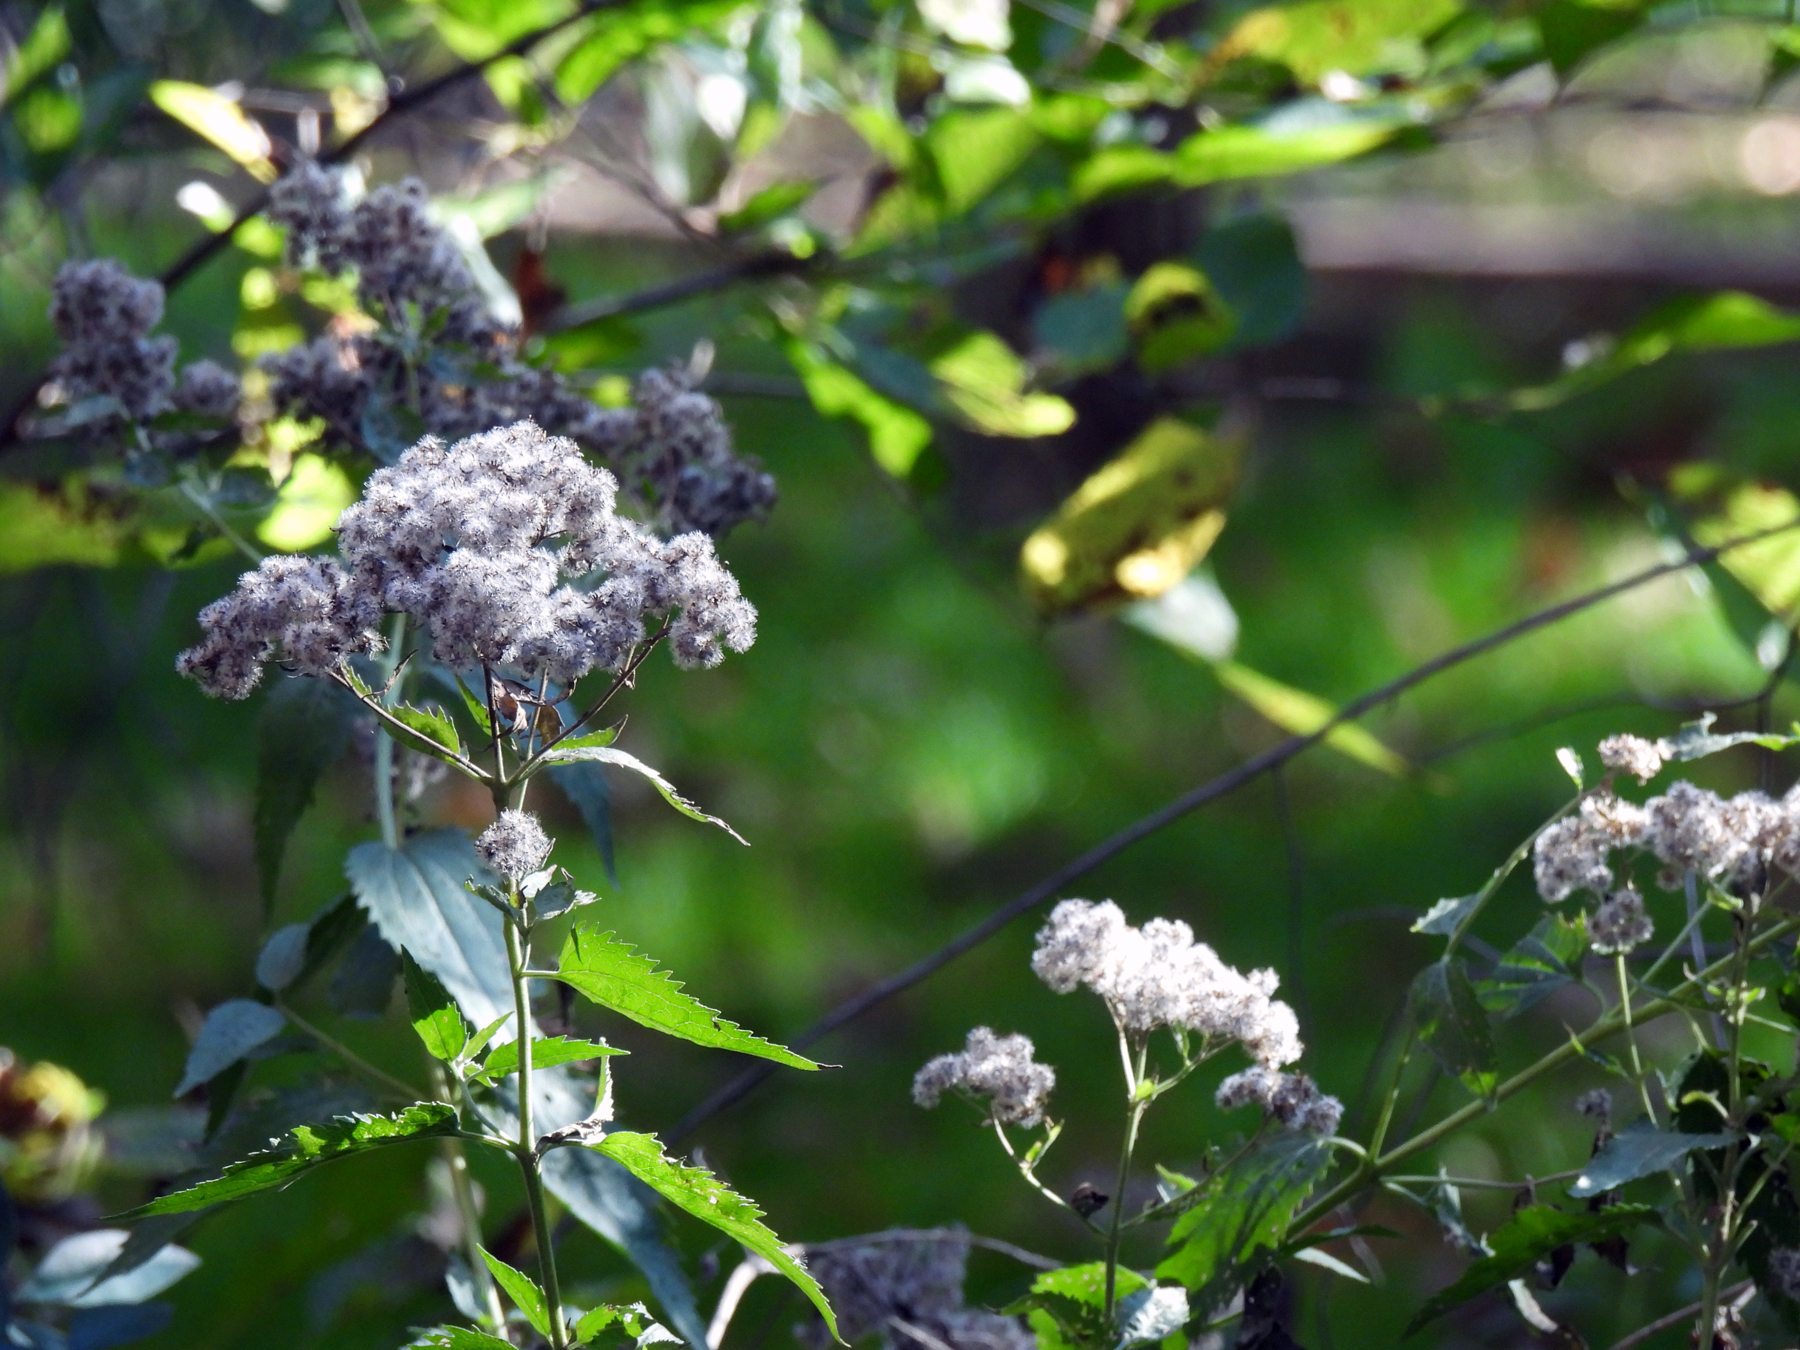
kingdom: Plantae
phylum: Tracheophyta
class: Magnoliopsida
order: Asterales
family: Asteraceae
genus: Eupatorium
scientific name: Eupatorium serotinum
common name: Late boneset
